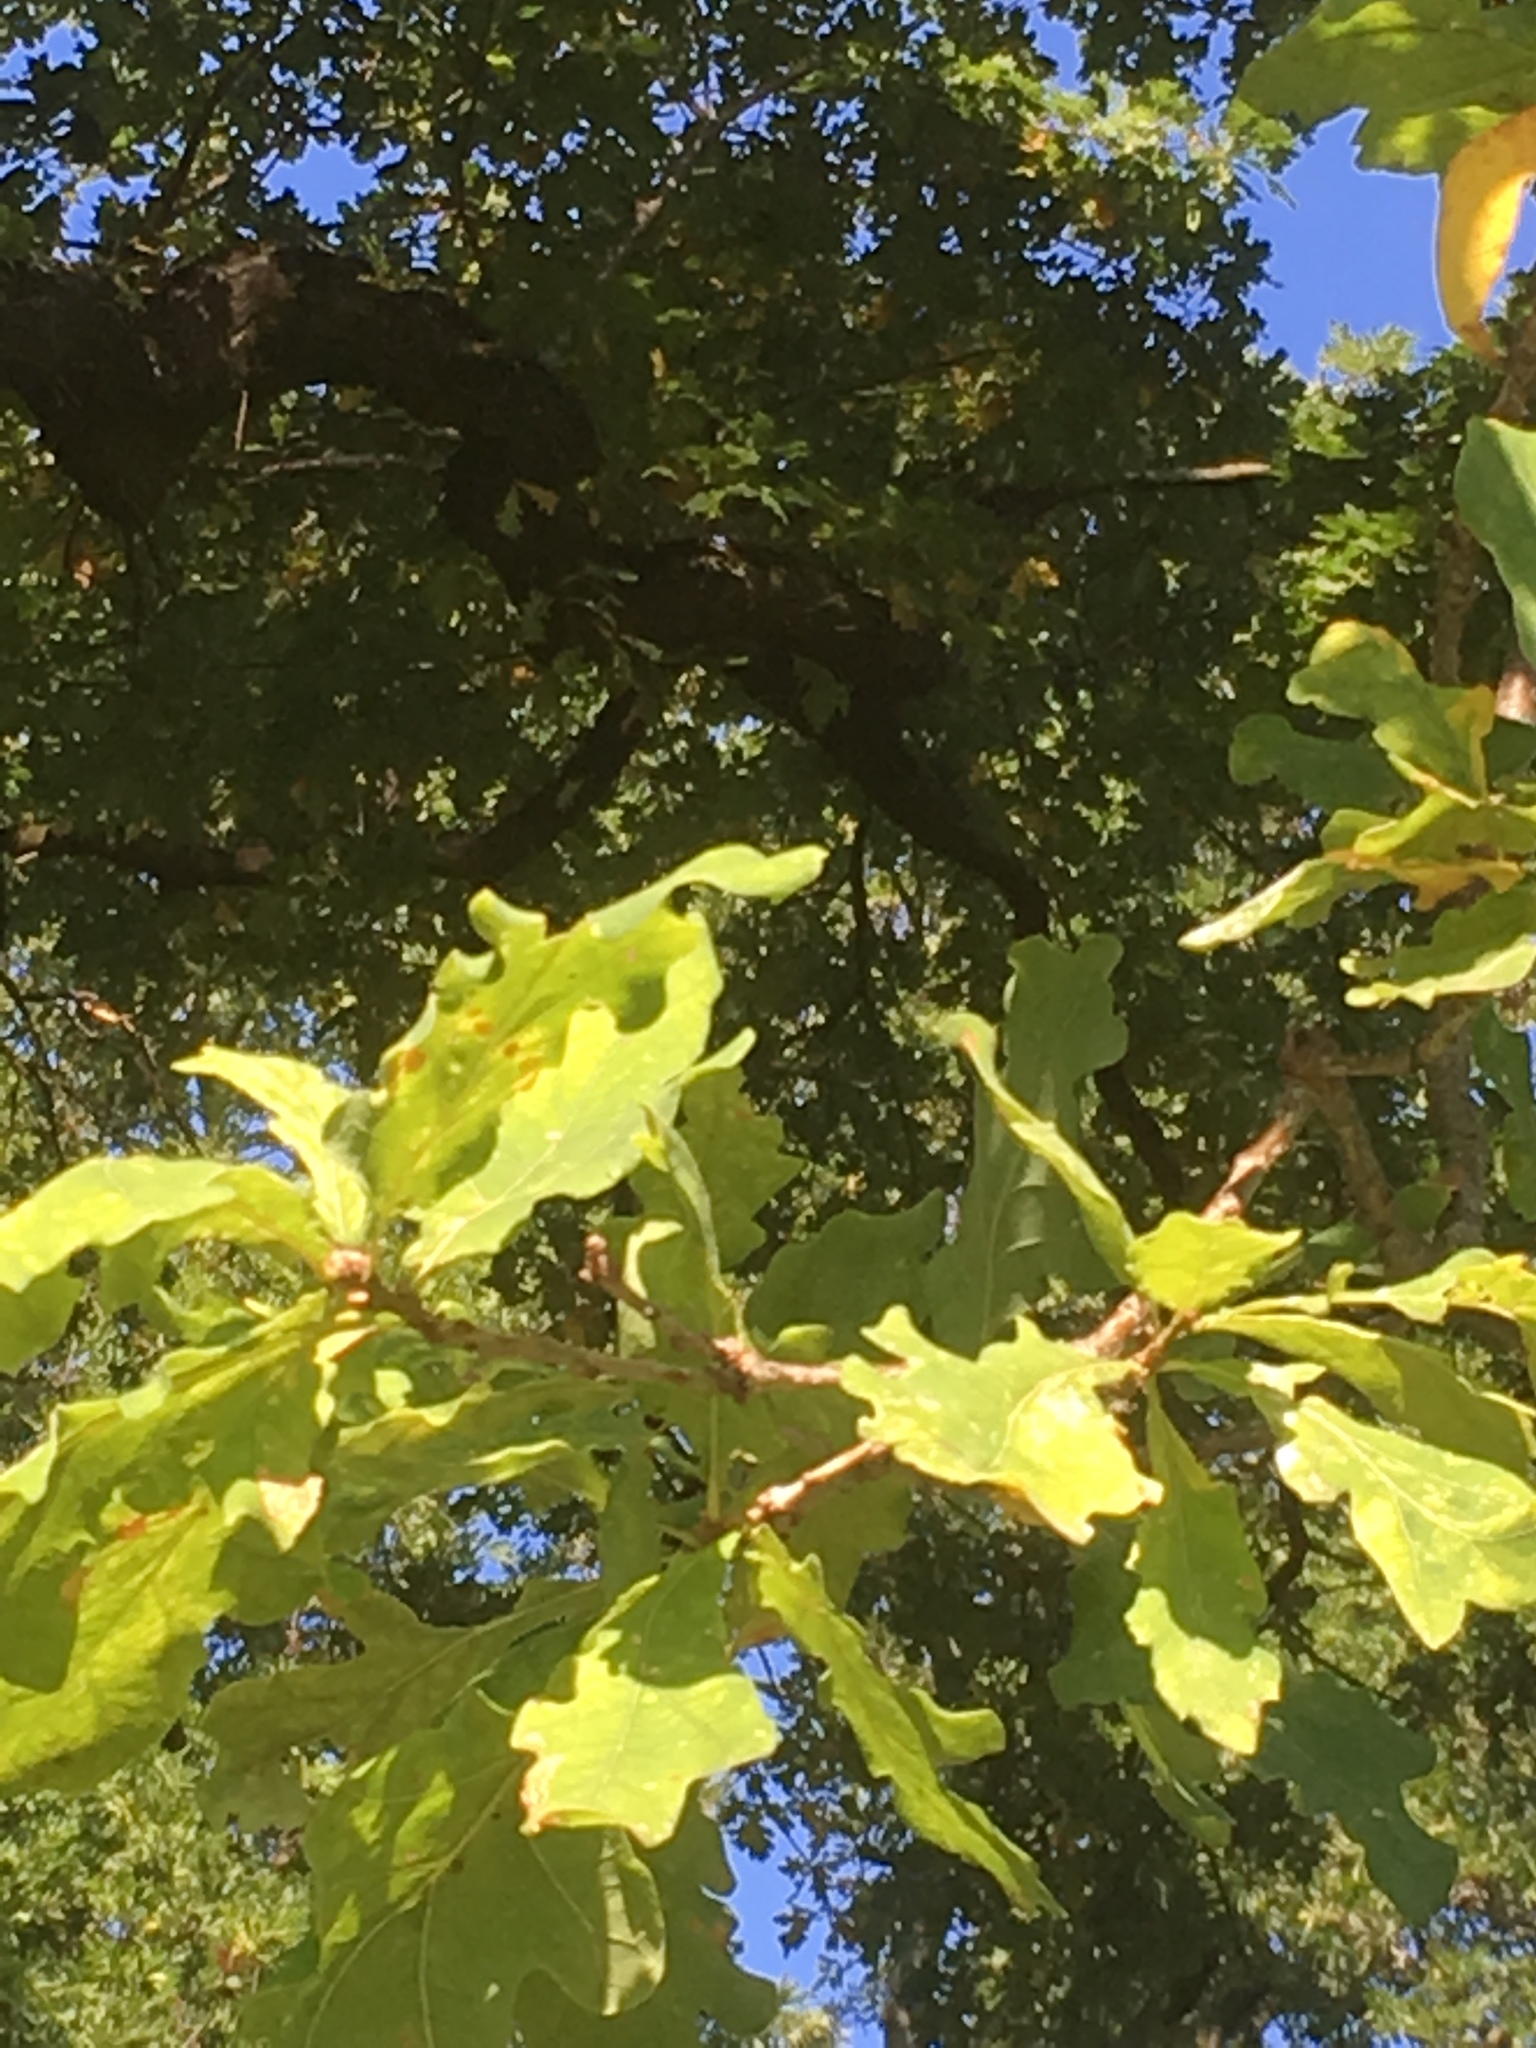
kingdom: Plantae
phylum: Tracheophyta
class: Magnoliopsida
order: Fagales
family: Fagaceae
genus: Quercus
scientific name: Quercus robur
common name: Pedunculate oak
